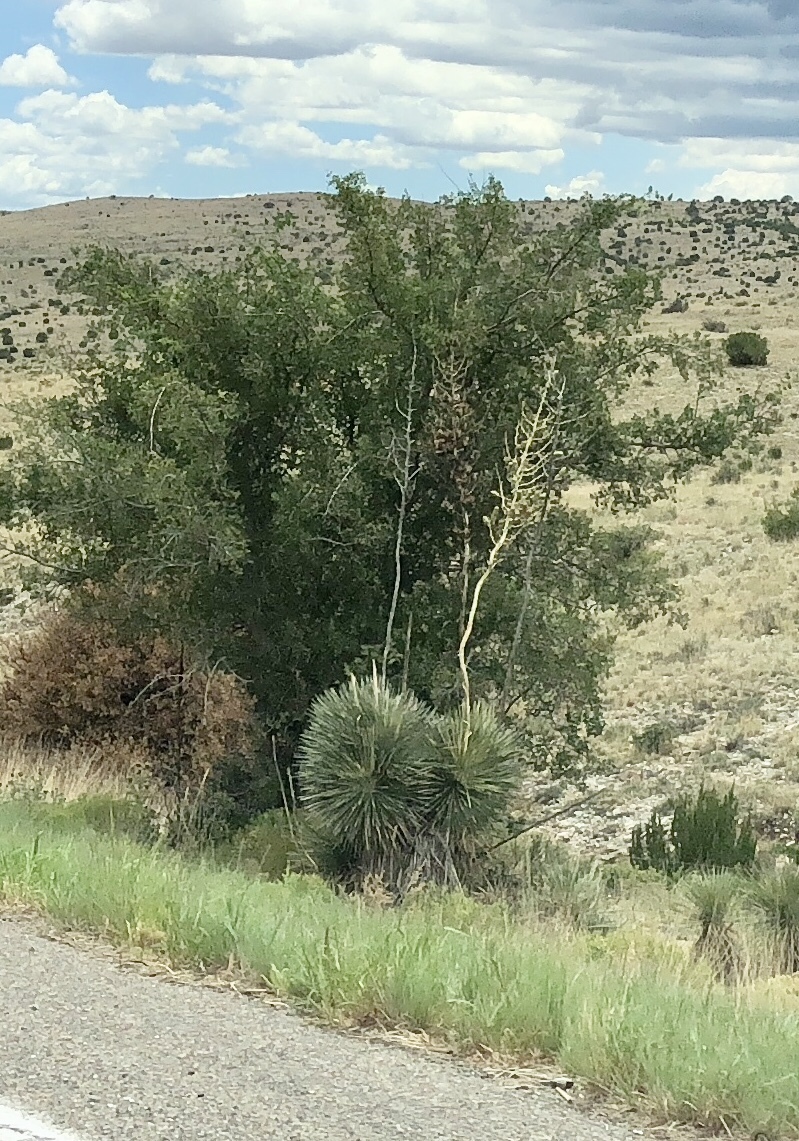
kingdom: Plantae
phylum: Tracheophyta
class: Liliopsida
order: Asparagales
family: Asparagaceae
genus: Yucca
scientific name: Yucca elata
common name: Palmella
